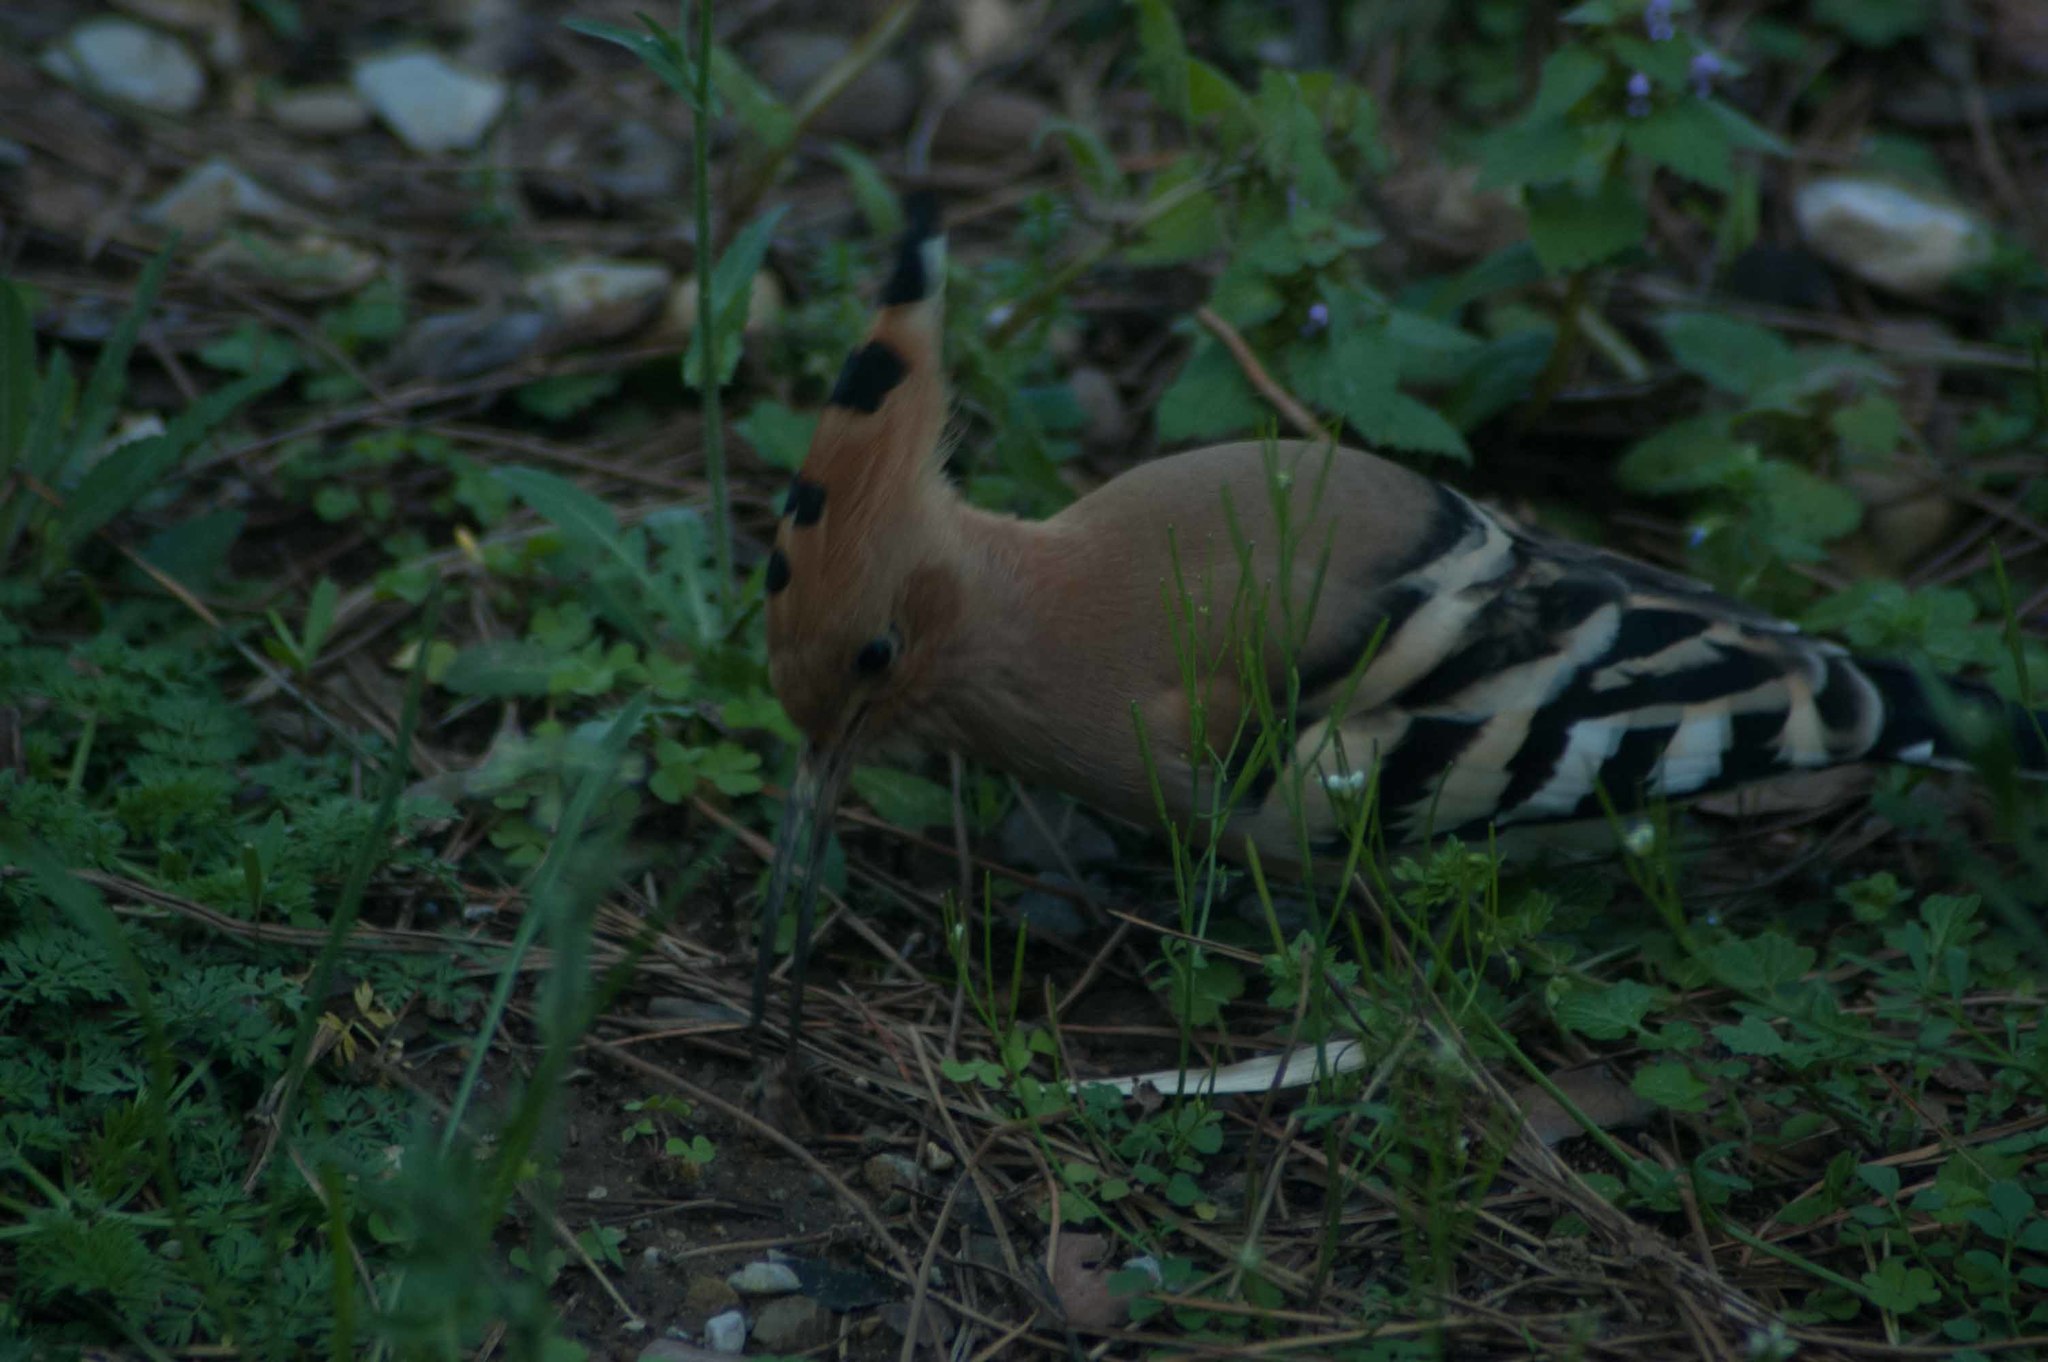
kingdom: Animalia
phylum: Chordata
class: Aves
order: Bucerotiformes
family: Upupidae
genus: Upupa
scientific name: Upupa epops
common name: Eurasian hoopoe
